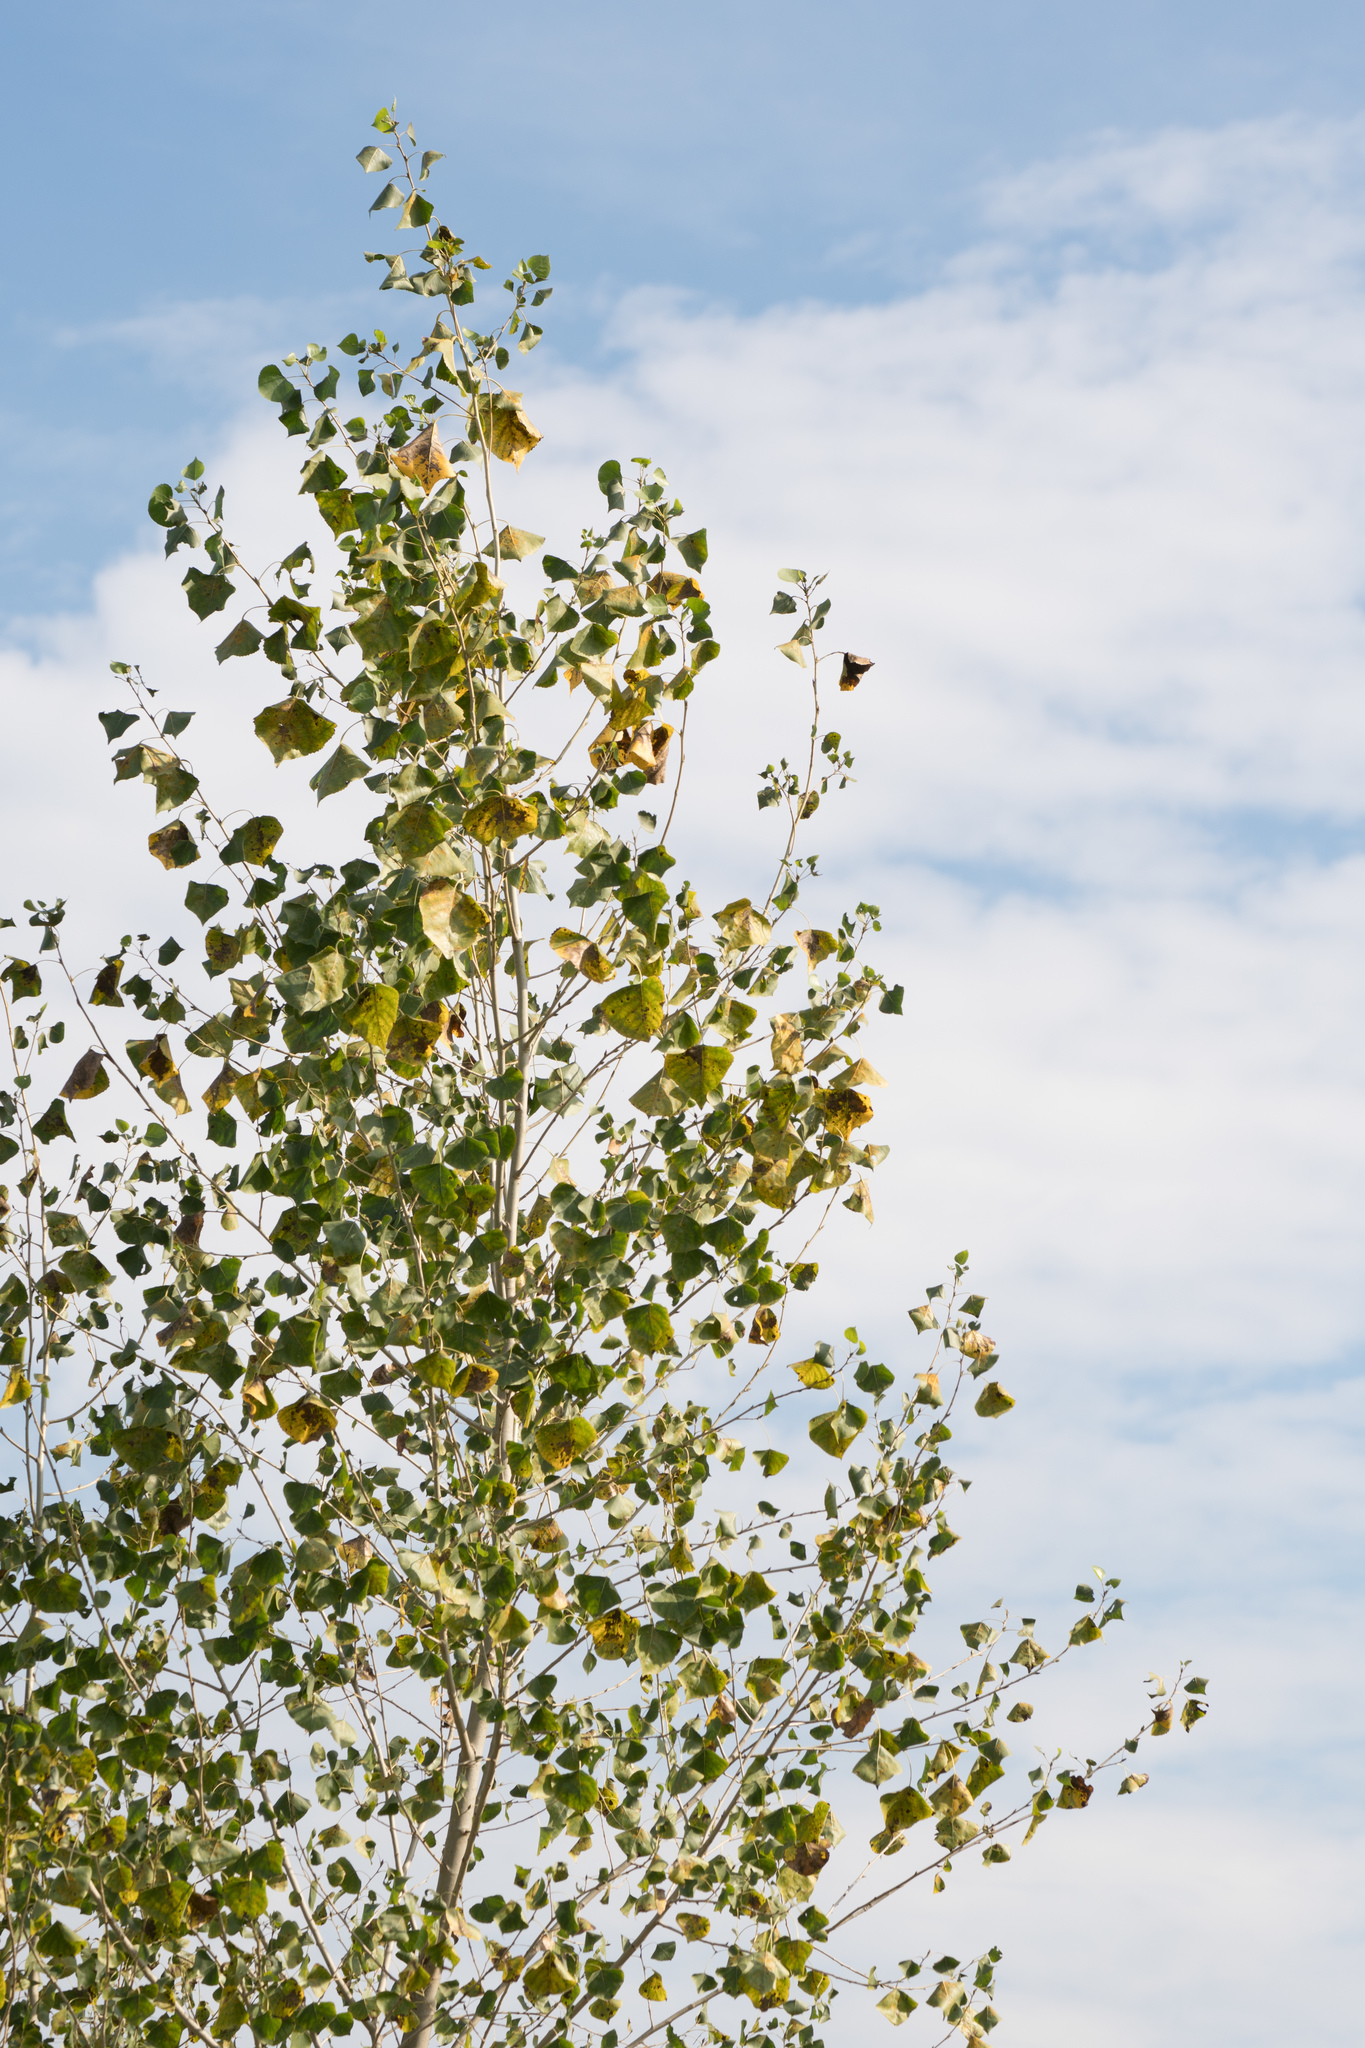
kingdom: Plantae
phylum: Tracheophyta
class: Magnoliopsida
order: Malpighiales
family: Salicaceae
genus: Populus
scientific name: Populus fremontii
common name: Fremont's cottonwood
